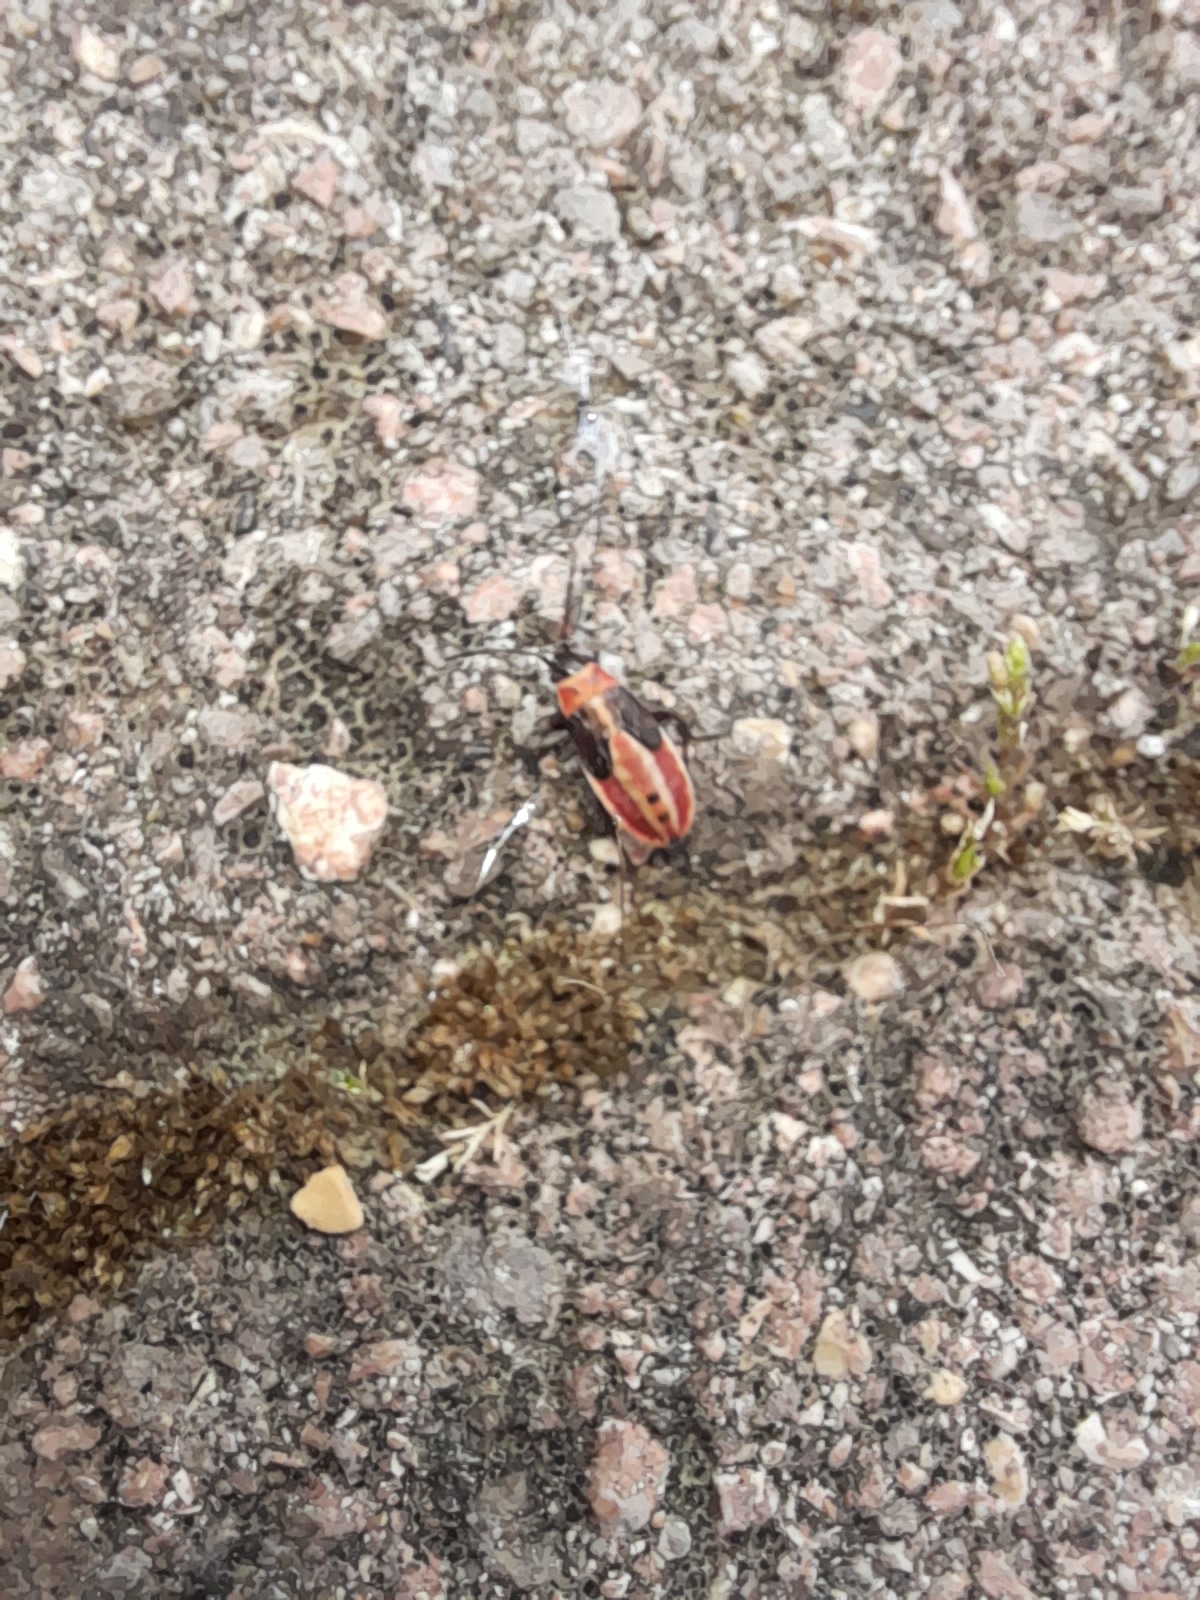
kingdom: Animalia
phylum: Arthropoda
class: Insecta
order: Hemiptera
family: Lygaeidae
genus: Lygaeus
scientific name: Lygaeus creticus
